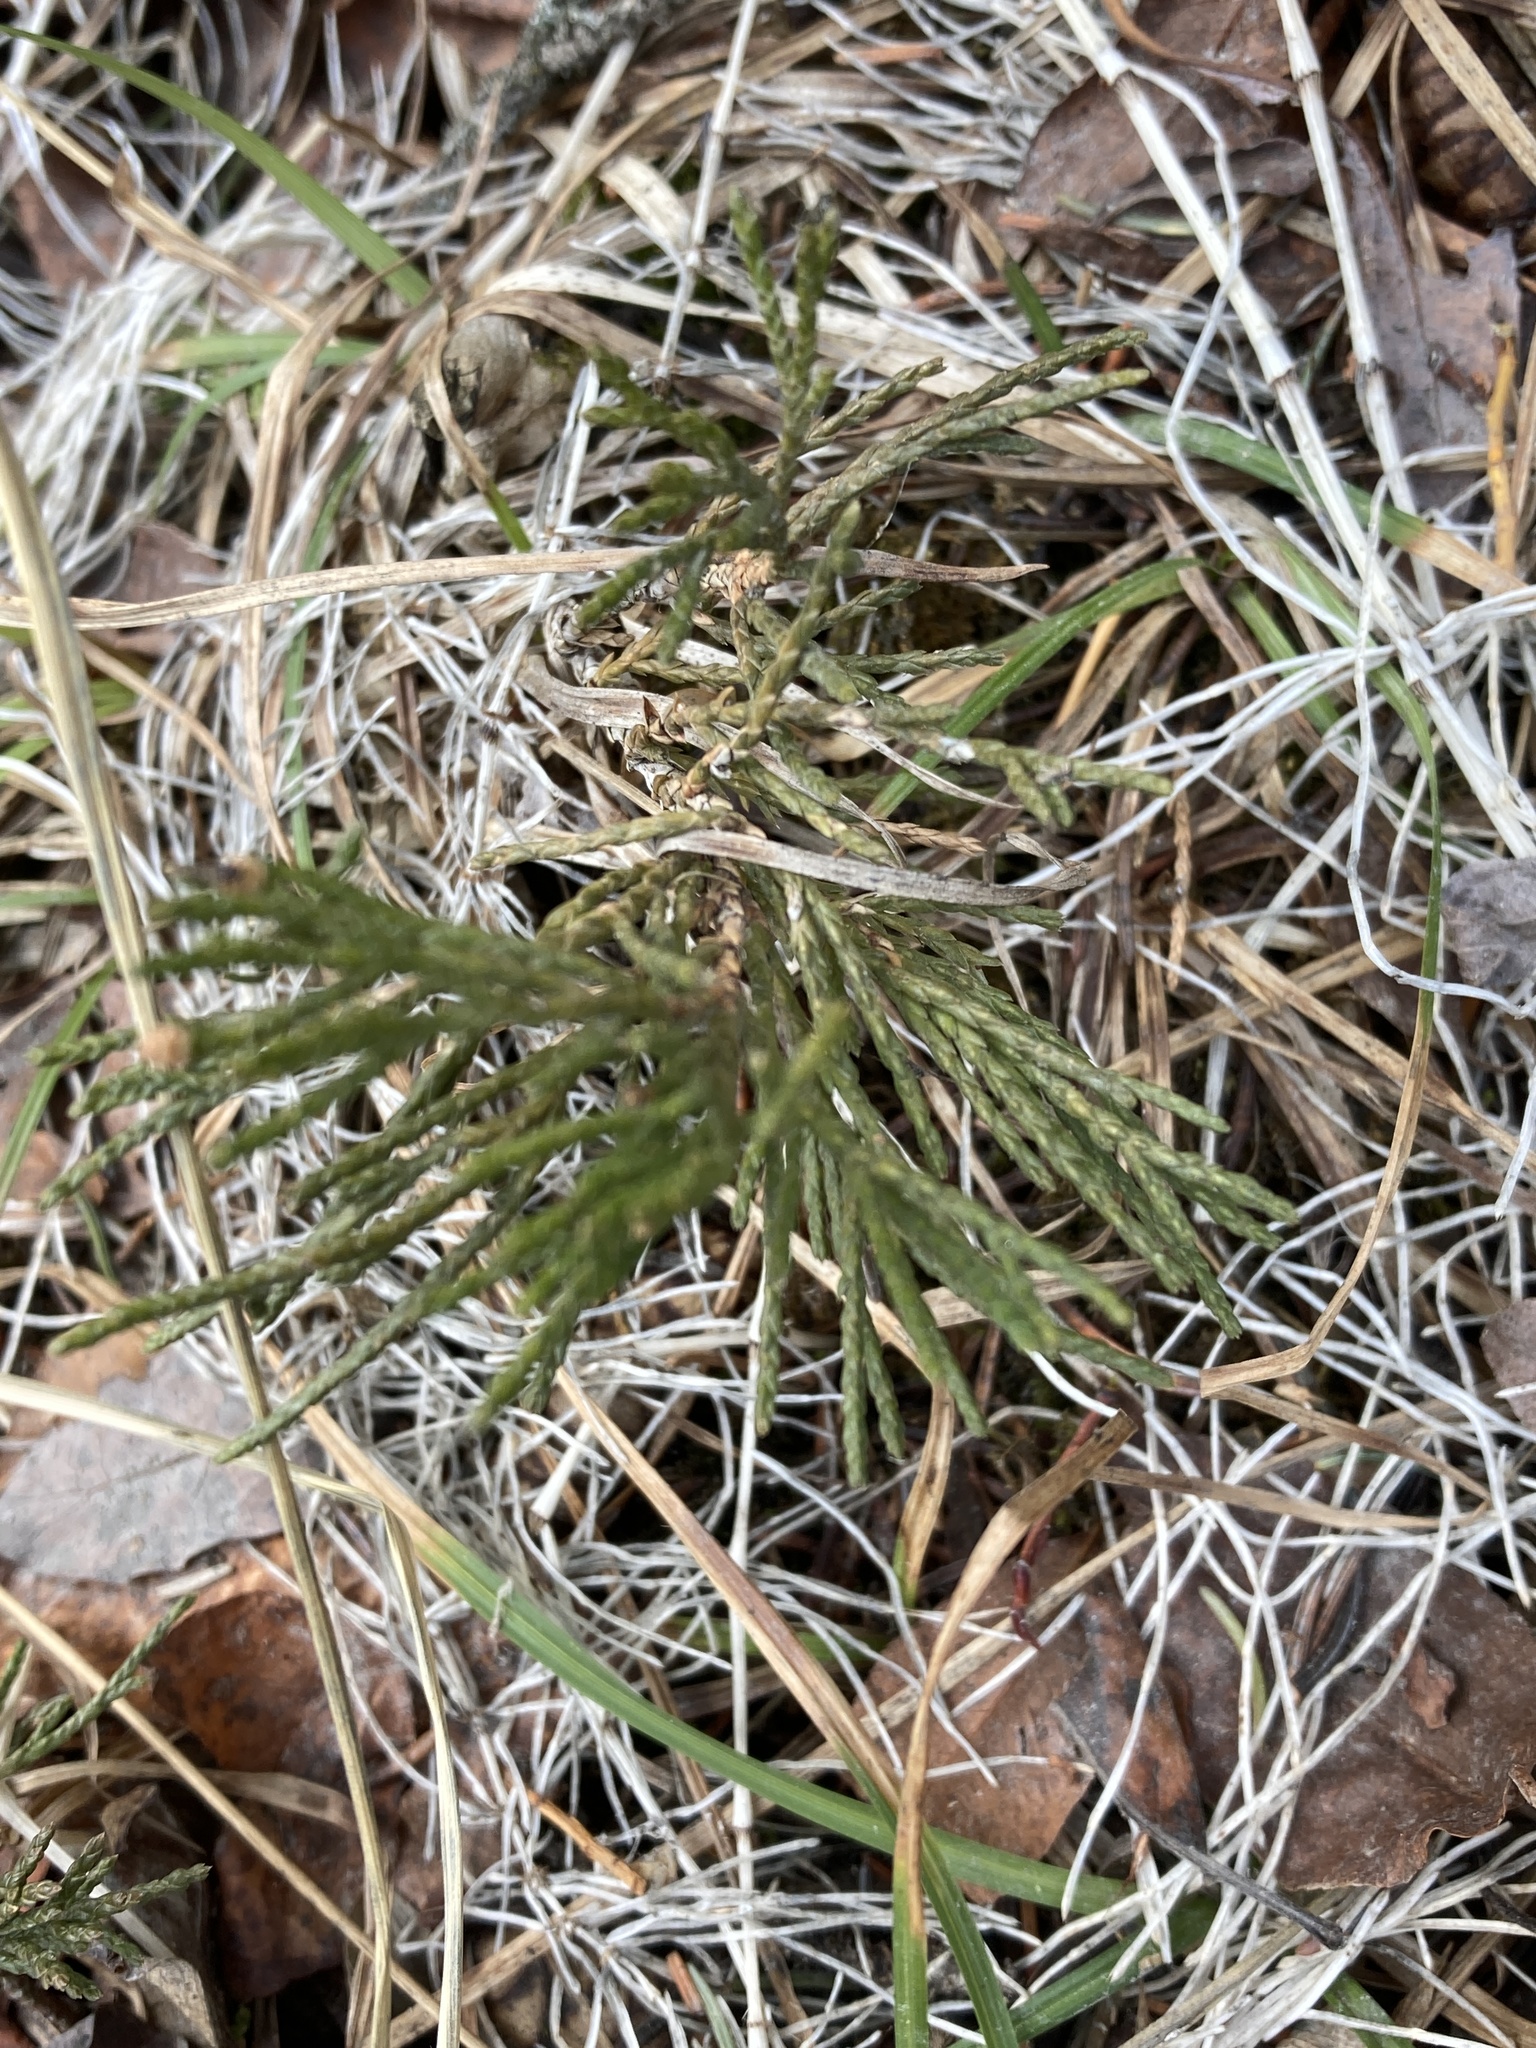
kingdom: Plantae
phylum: Tracheophyta
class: Pinopsida
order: Pinales
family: Cupressaceae
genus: Juniperus
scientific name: Juniperus horizontalis
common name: Creeping juniper
